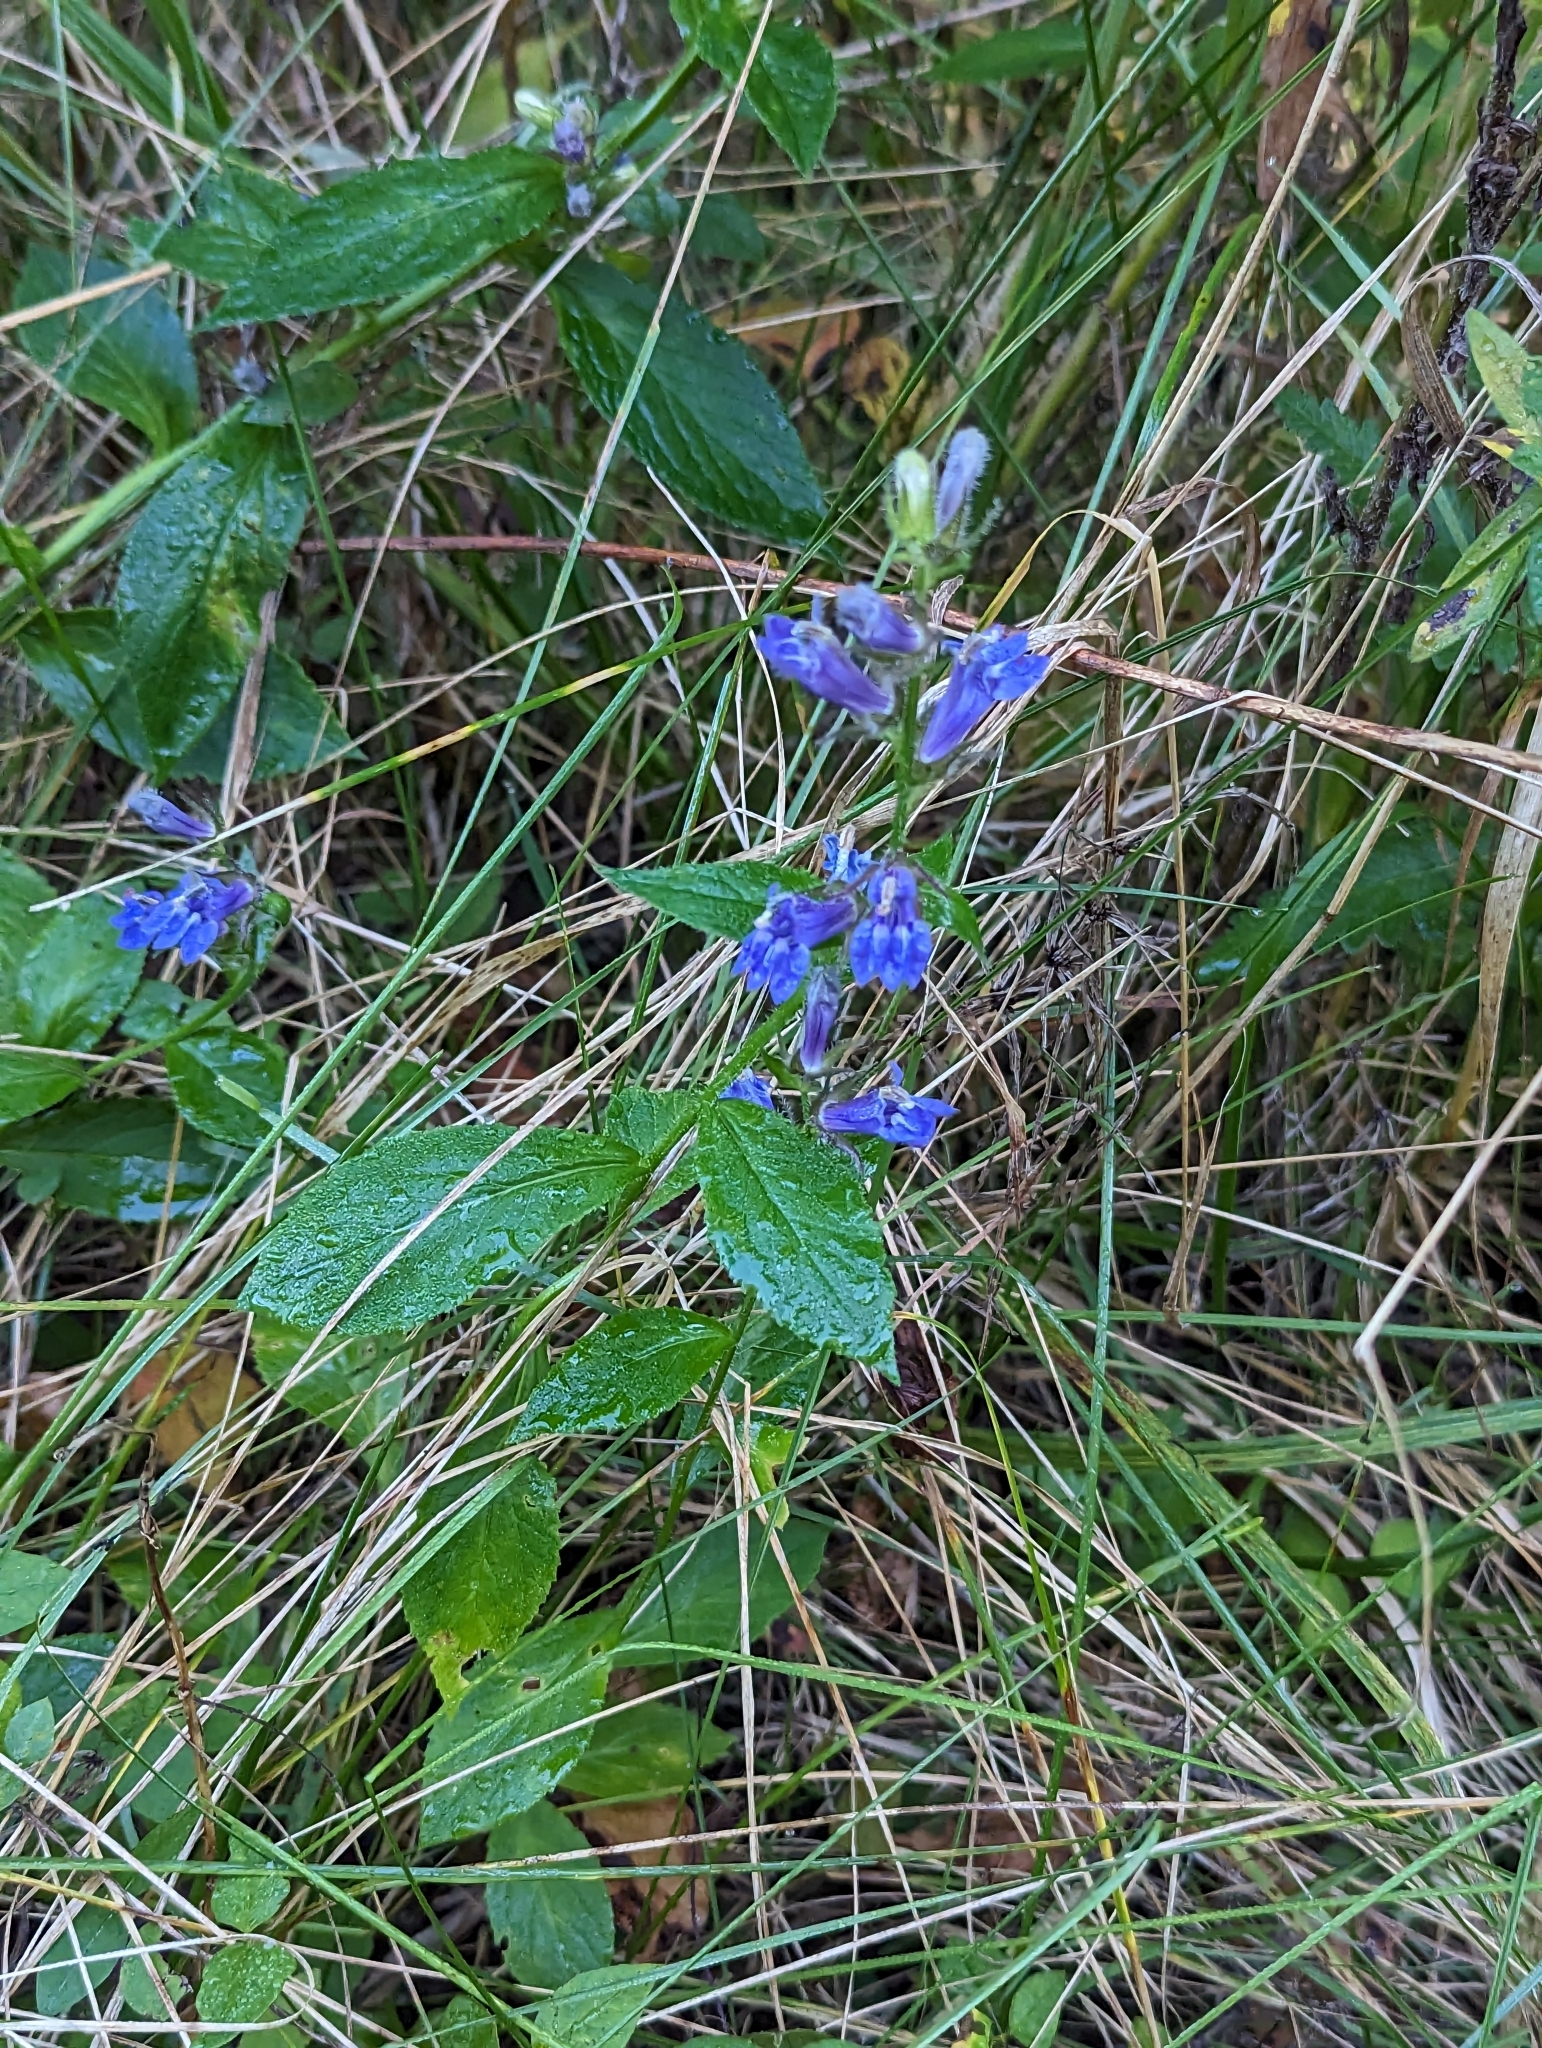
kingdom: Plantae
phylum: Tracheophyta
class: Magnoliopsida
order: Asterales
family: Campanulaceae
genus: Lobelia
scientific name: Lobelia siphilitica
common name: Great lobelia
